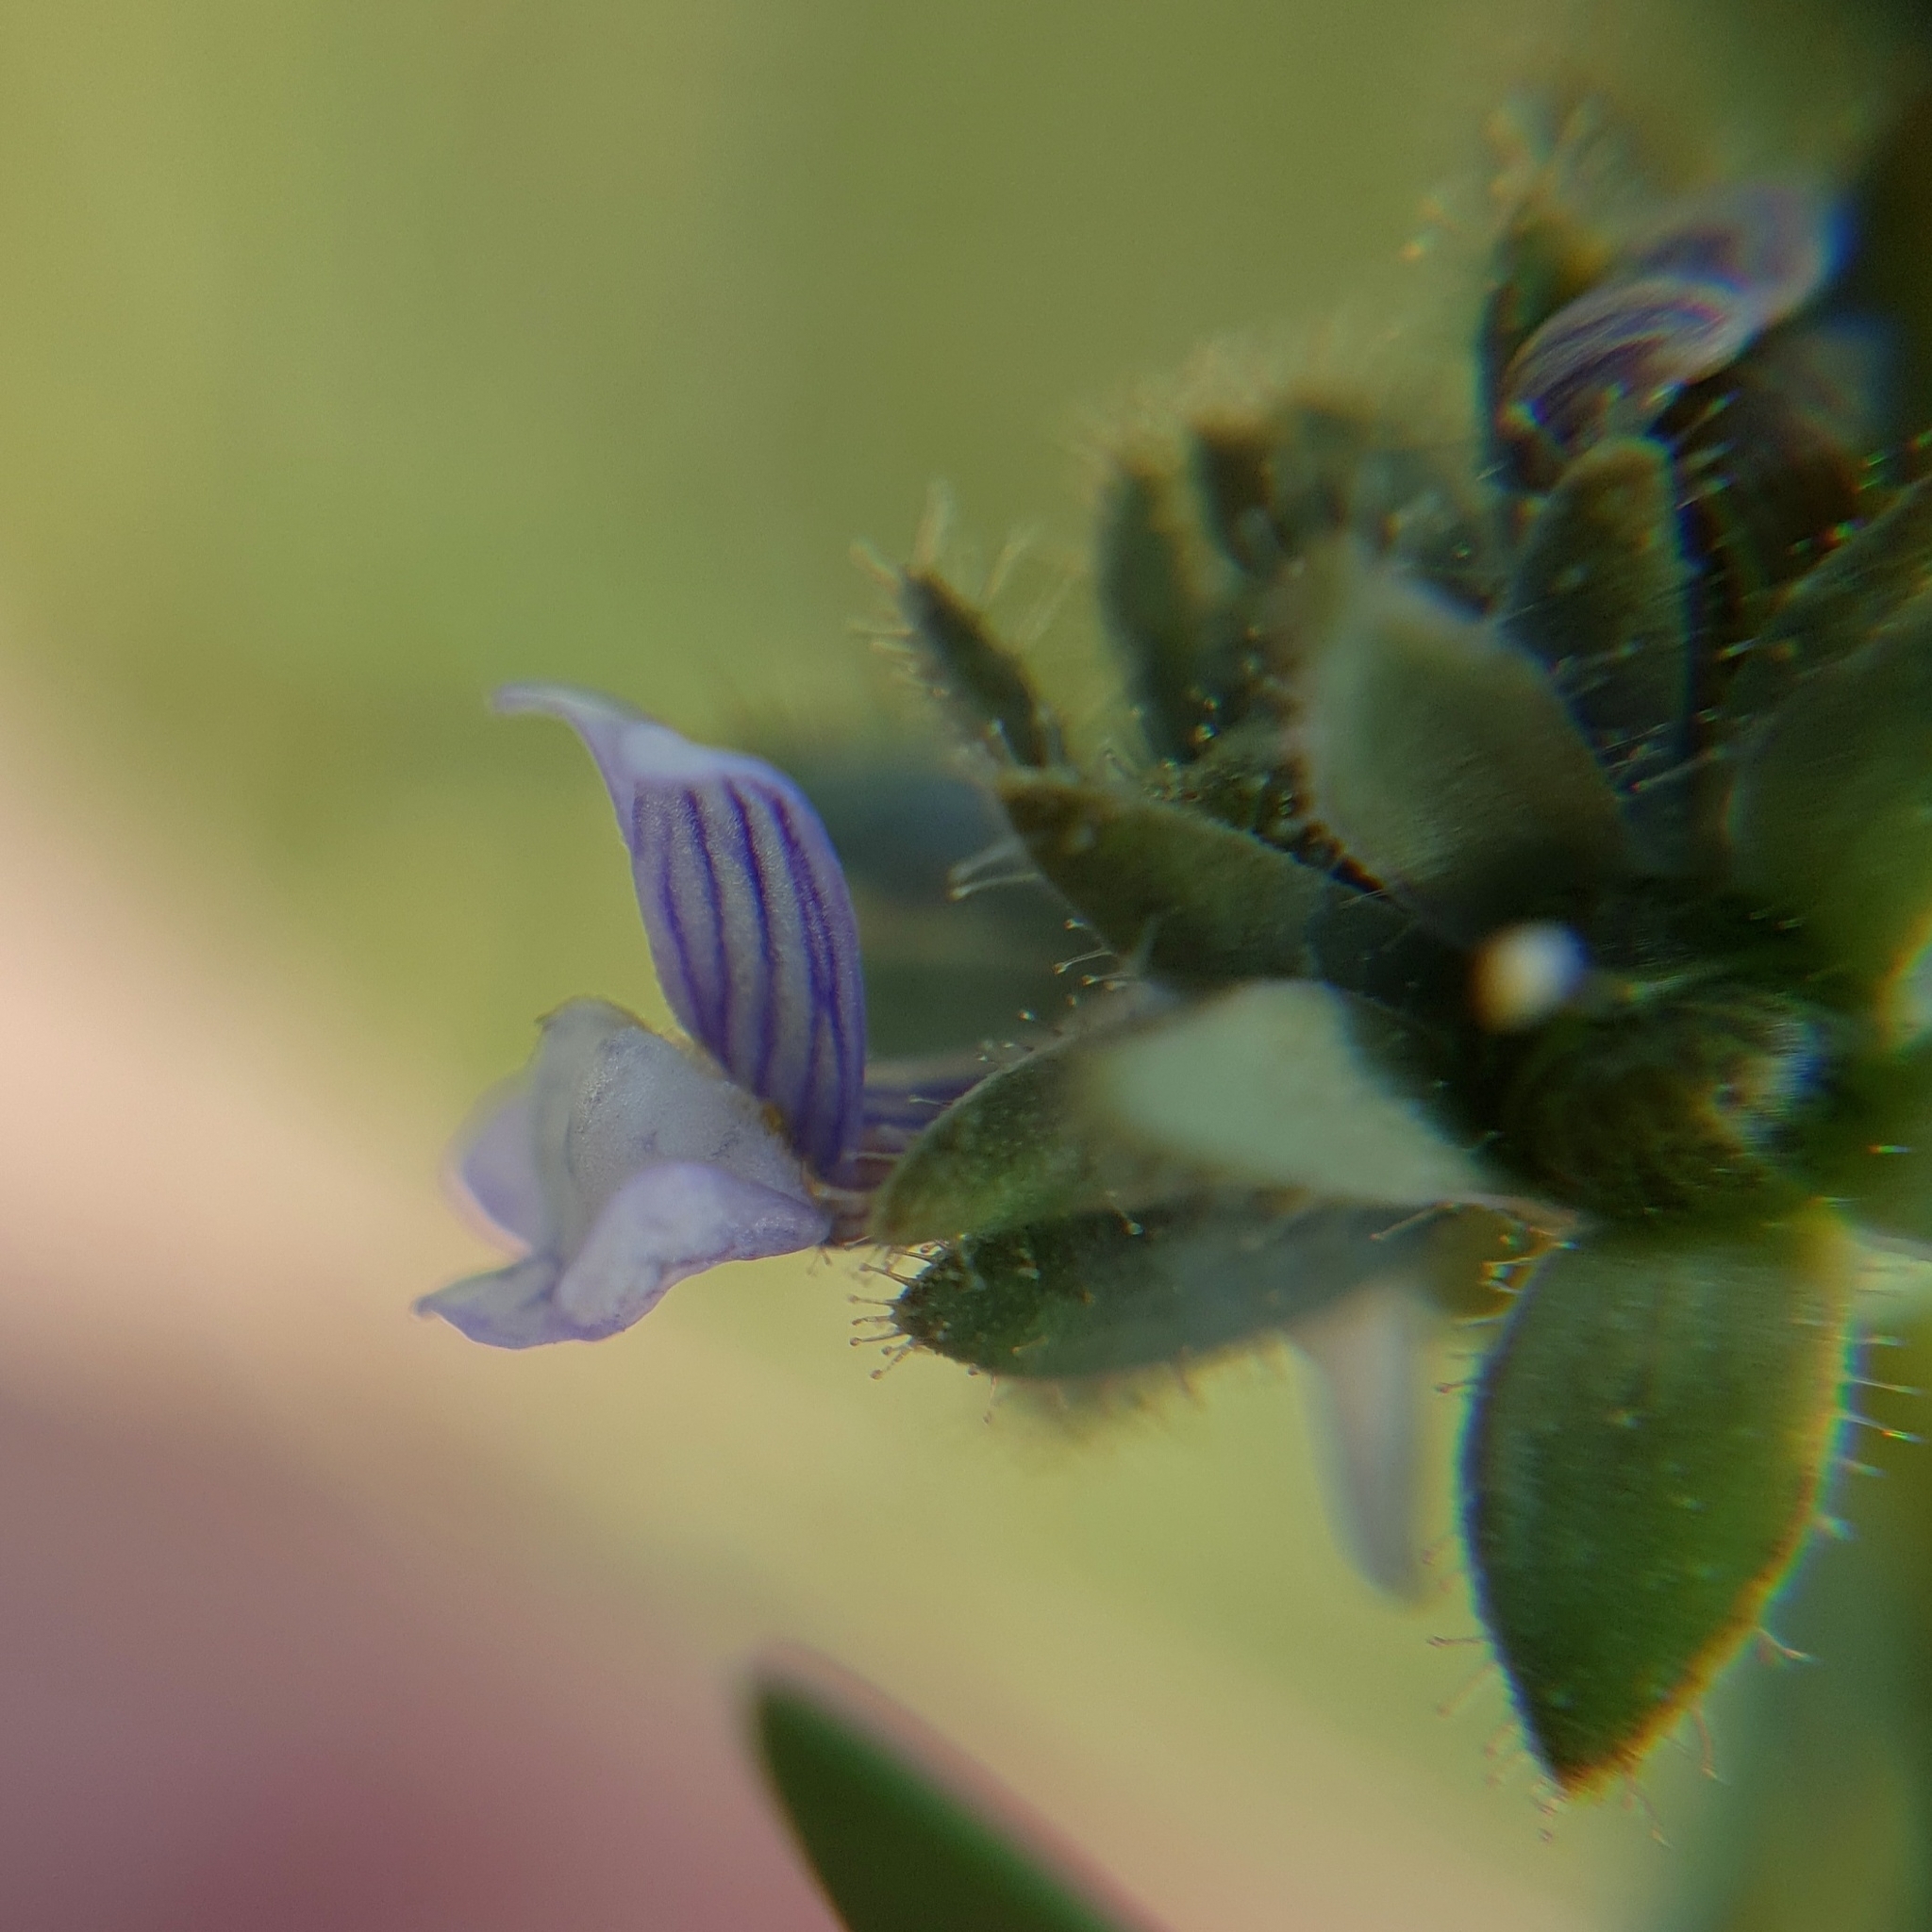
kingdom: Plantae
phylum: Tracheophyta
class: Magnoliopsida
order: Lamiales
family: Plantaginaceae
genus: Linaria
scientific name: Linaria micrantha
